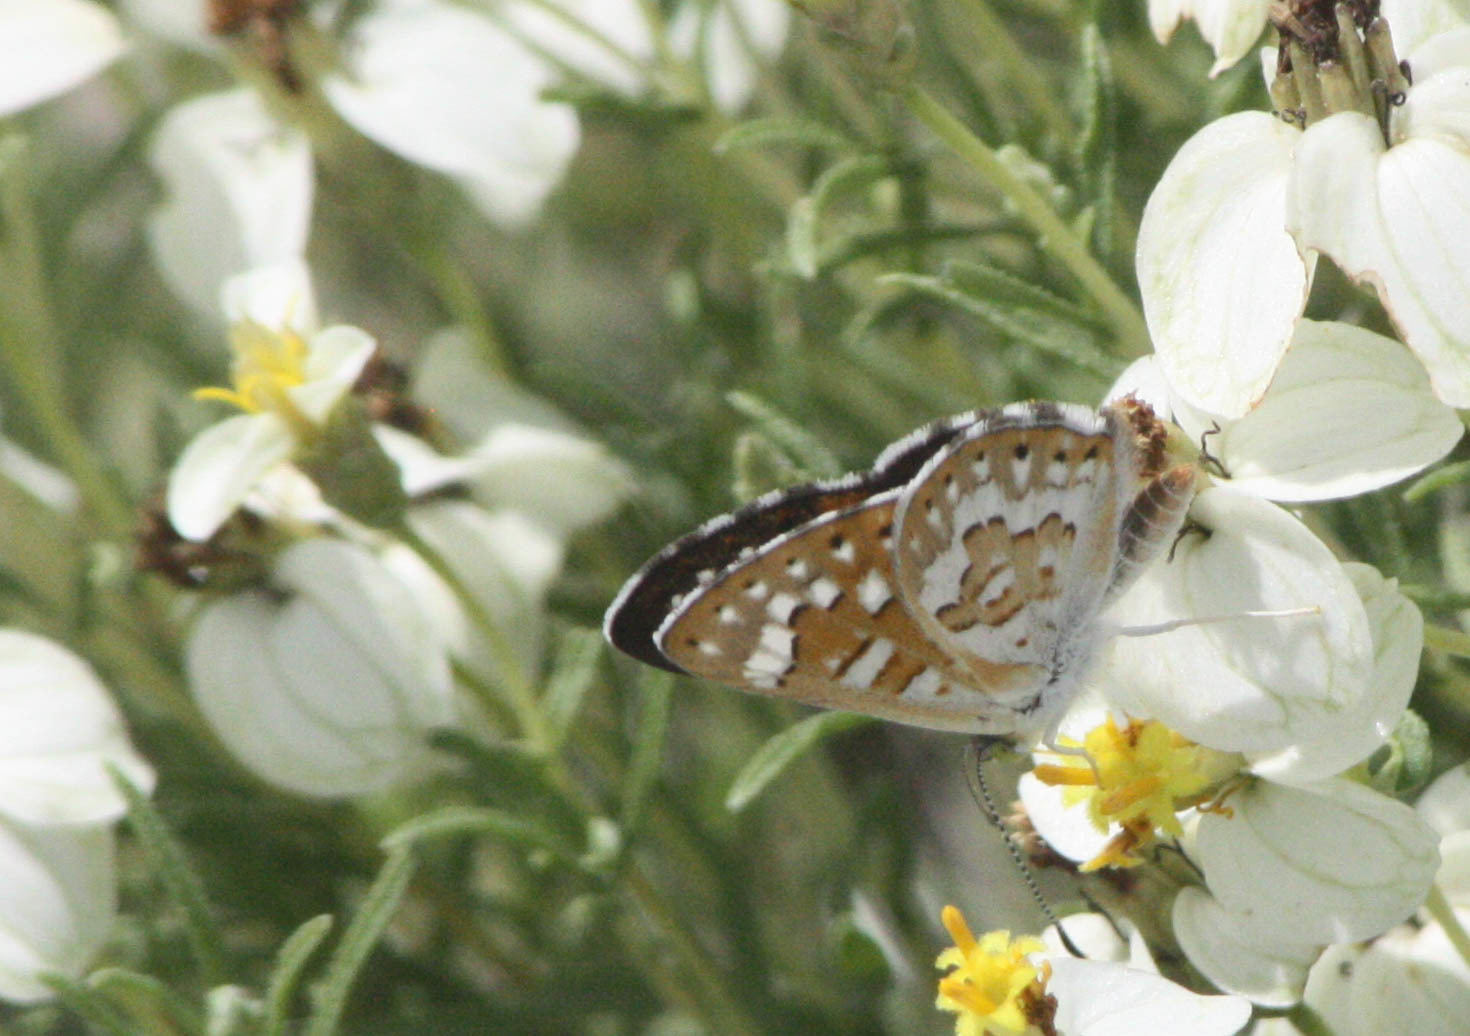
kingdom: Animalia
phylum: Arthropoda
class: Insecta
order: Lepidoptera
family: Riodinidae
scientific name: Riodinidae
